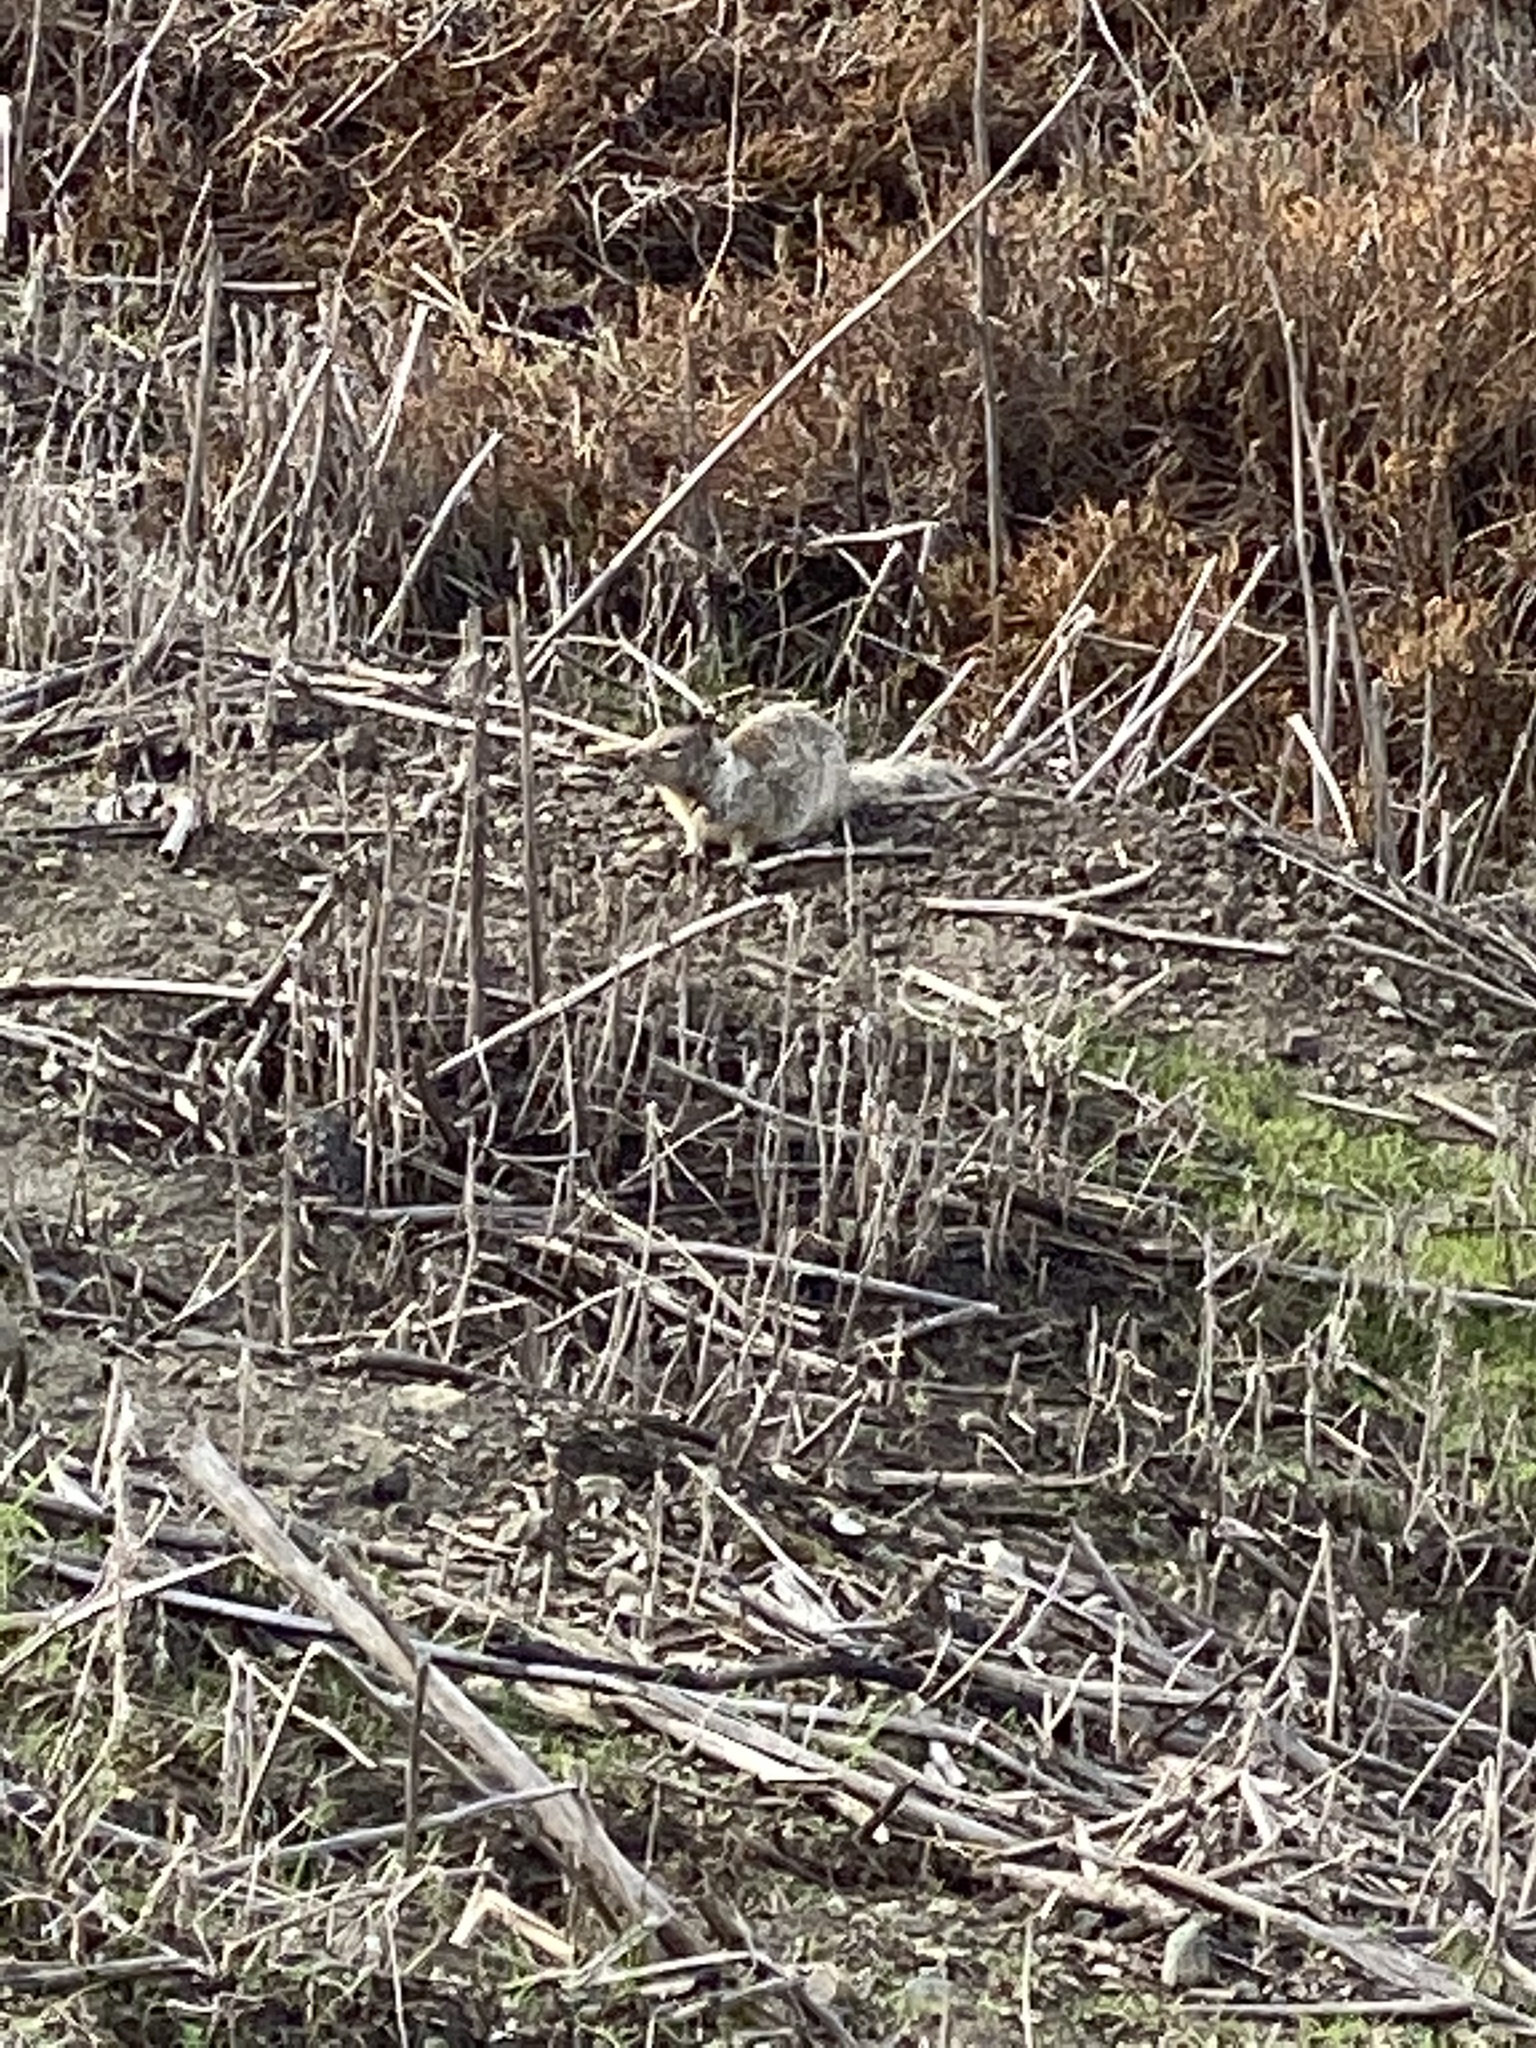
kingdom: Animalia
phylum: Chordata
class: Mammalia
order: Rodentia
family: Sciuridae
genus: Otospermophilus
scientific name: Otospermophilus beecheyi
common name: California ground squirrel
